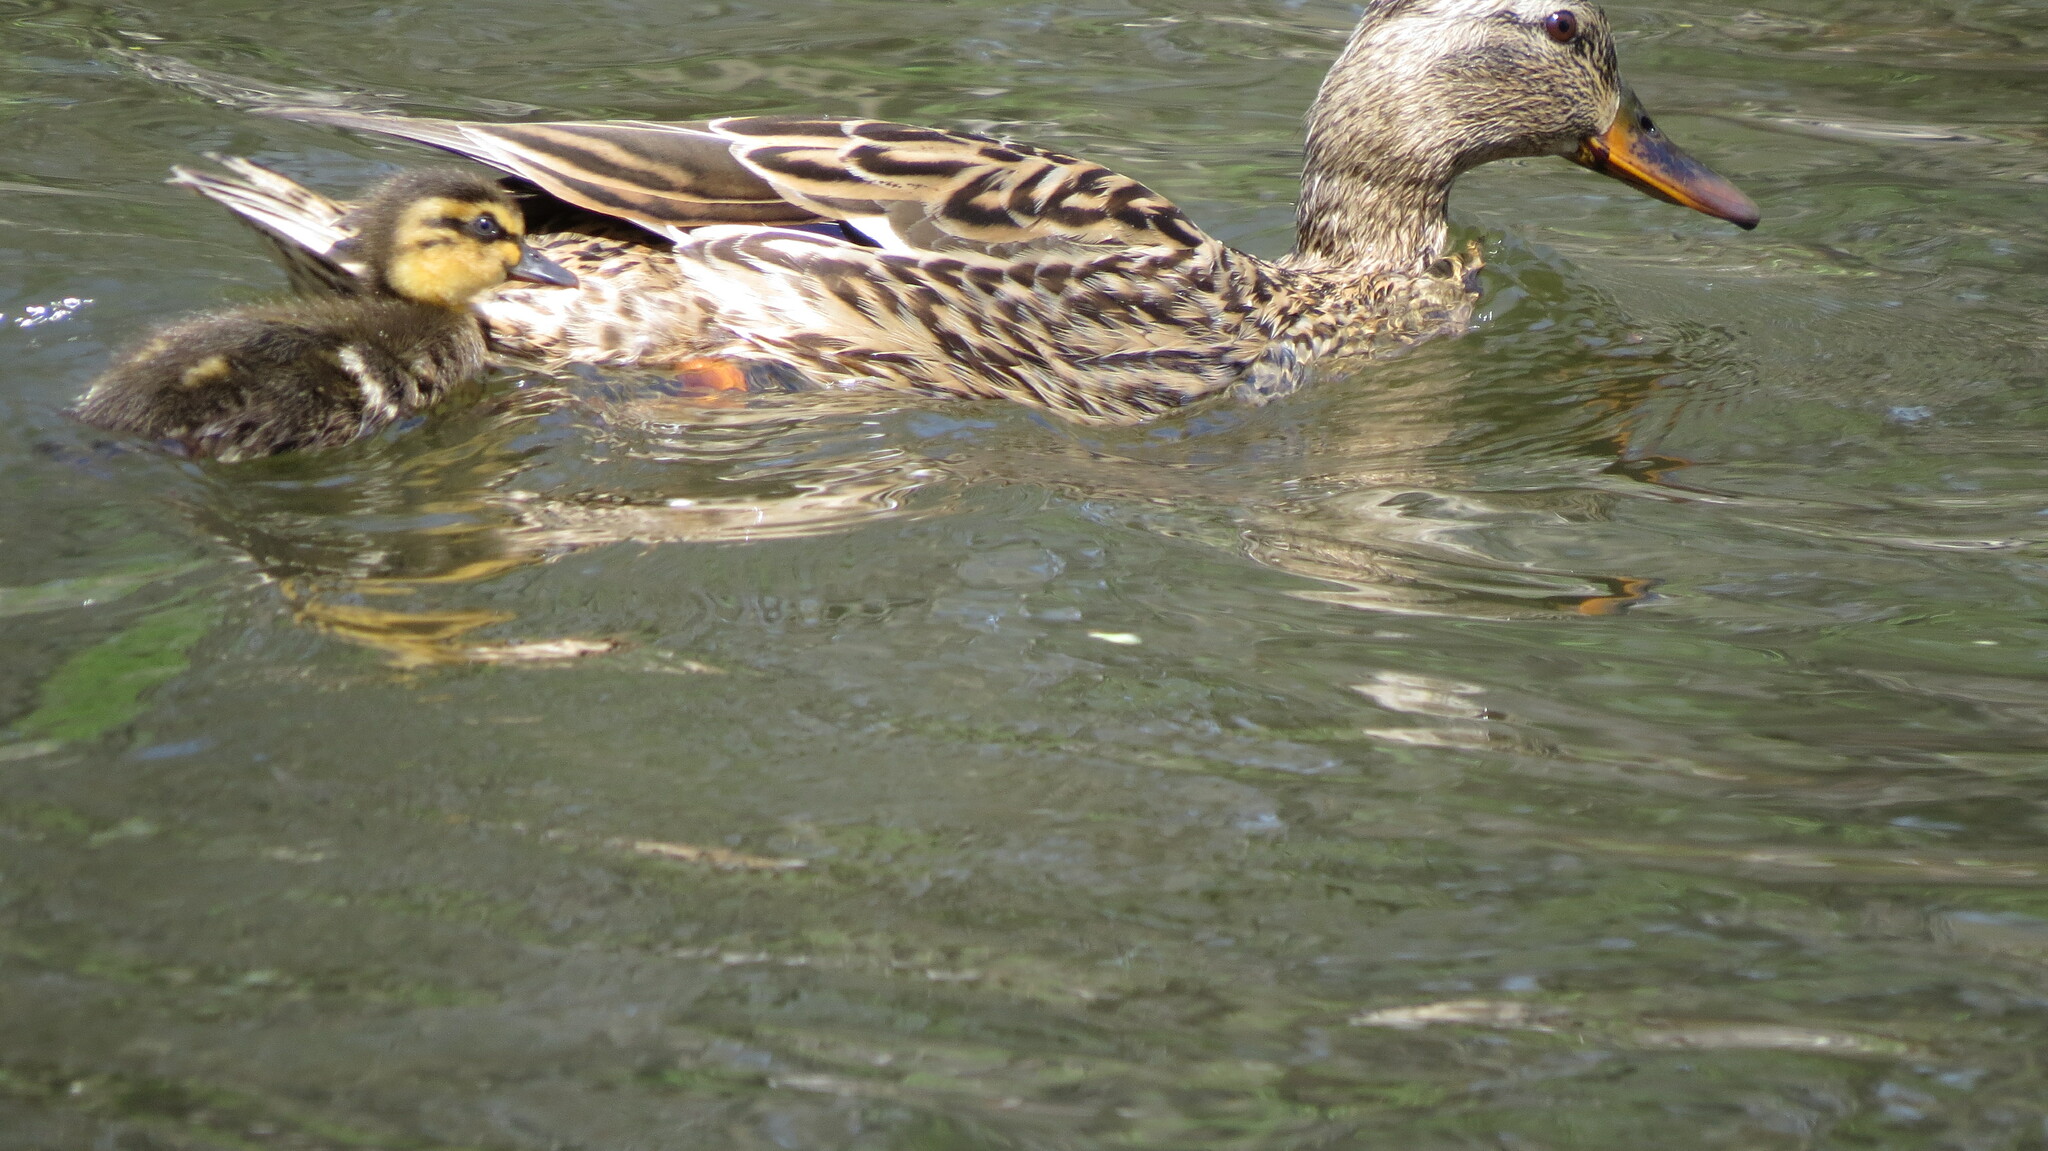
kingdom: Animalia
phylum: Chordata
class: Aves
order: Anseriformes
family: Anatidae
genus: Anas
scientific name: Anas platyrhynchos
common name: Mallard
